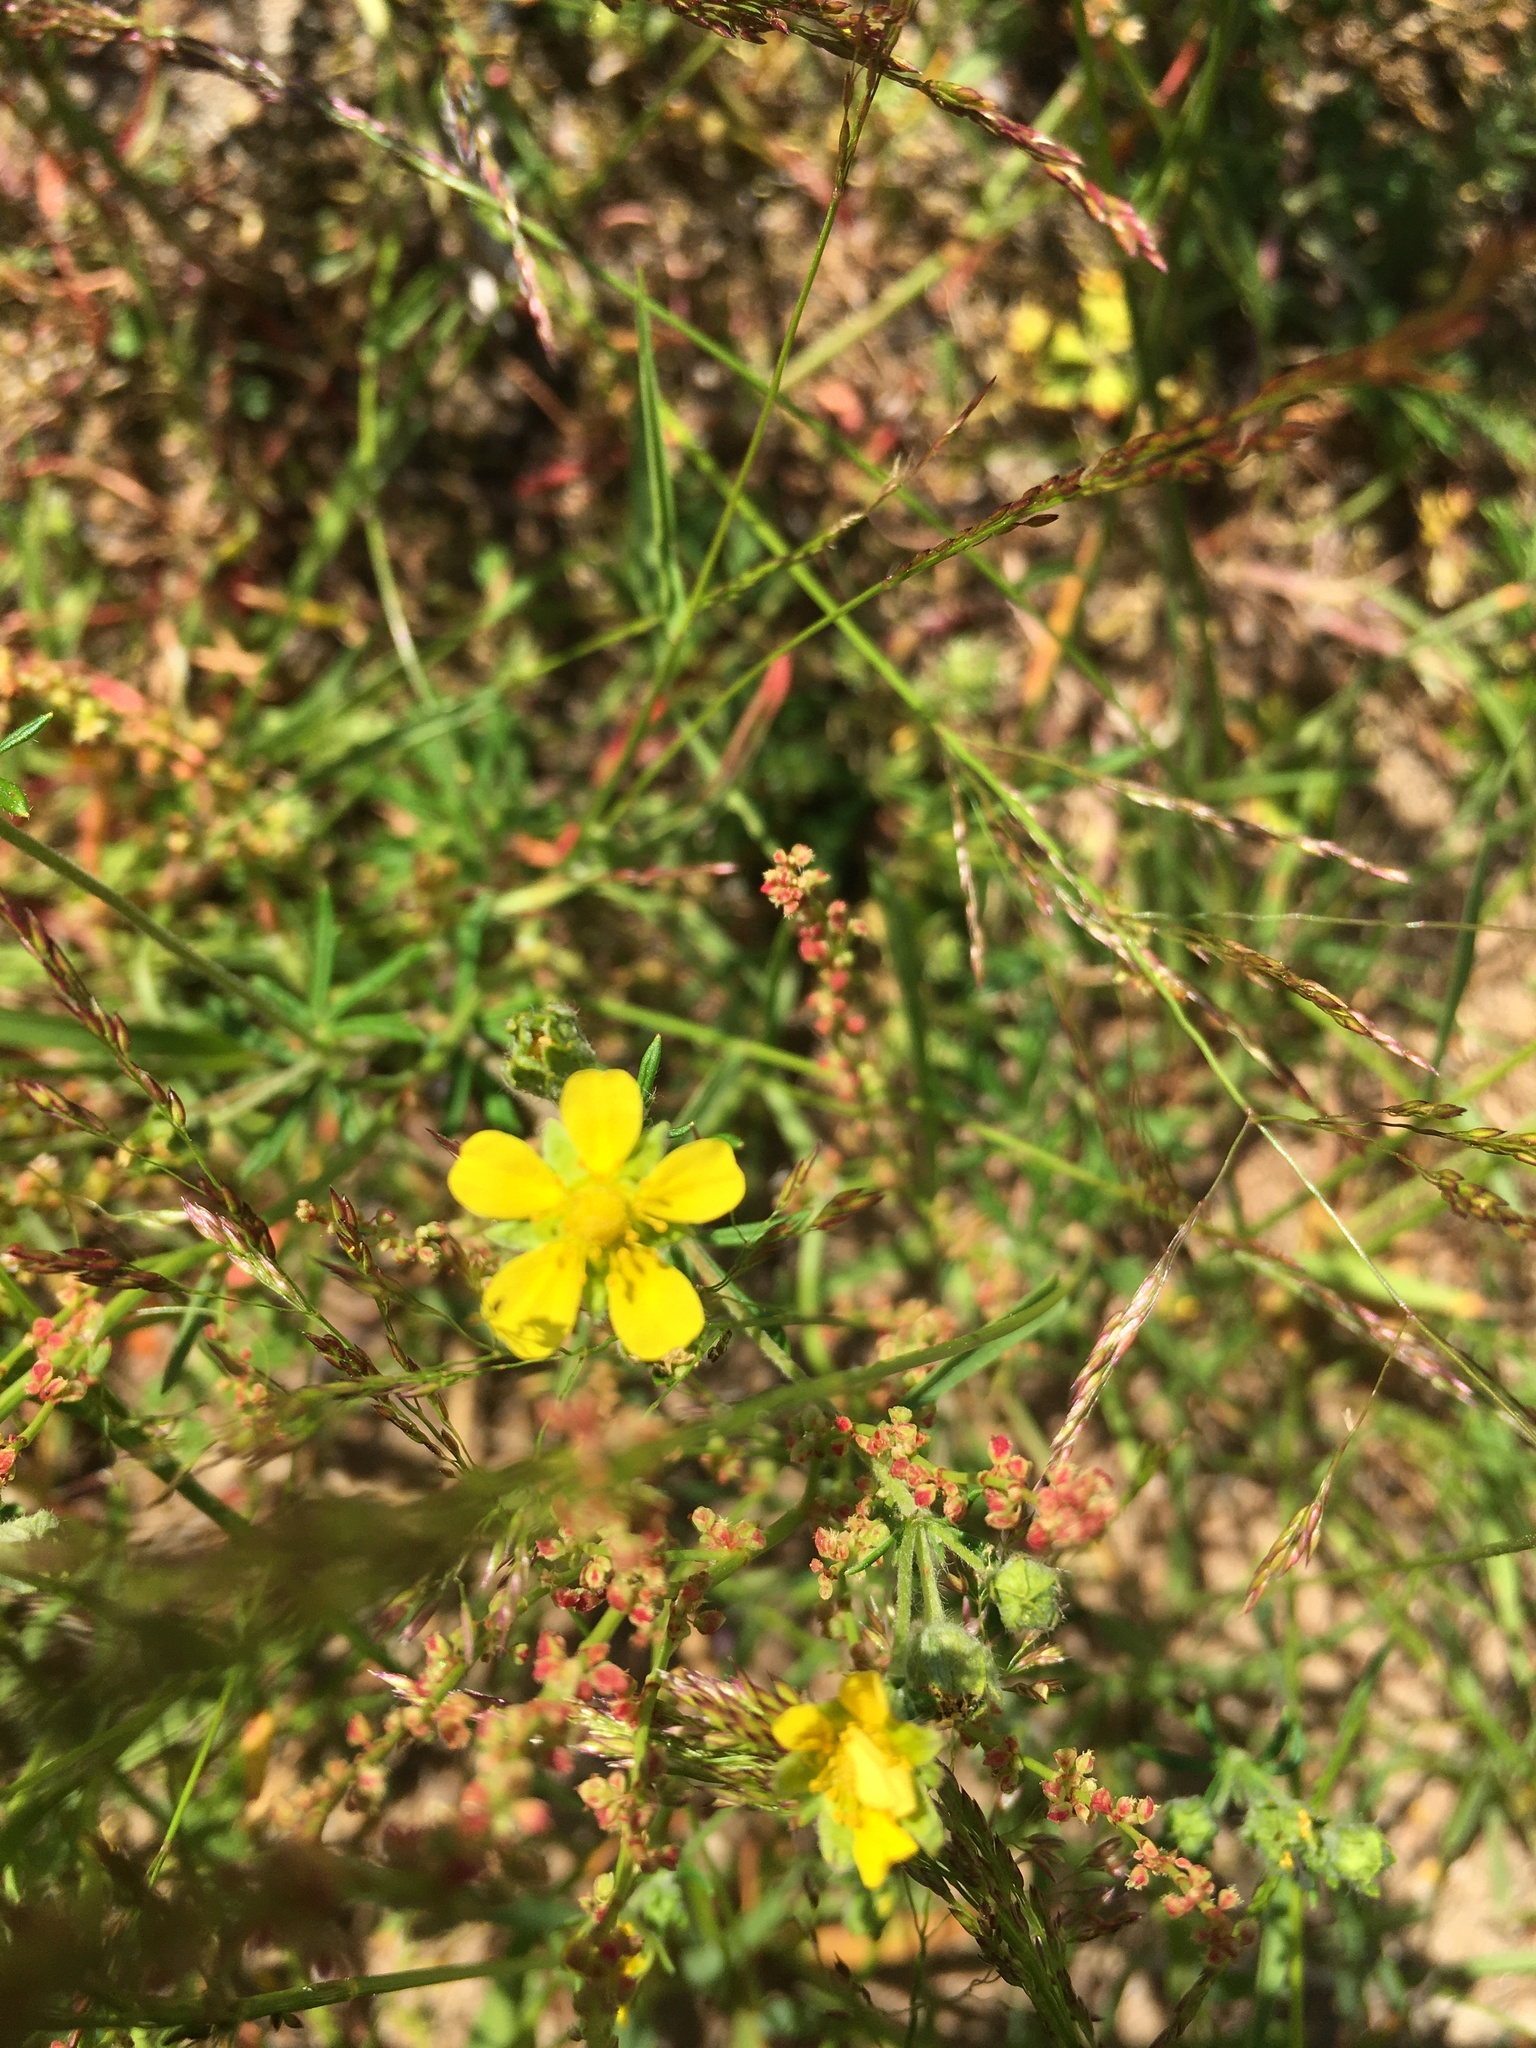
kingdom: Plantae
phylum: Tracheophyta
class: Magnoliopsida
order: Rosales
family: Rosaceae
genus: Potentilla
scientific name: Potentilla argentea
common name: Hoary cinquefoil
